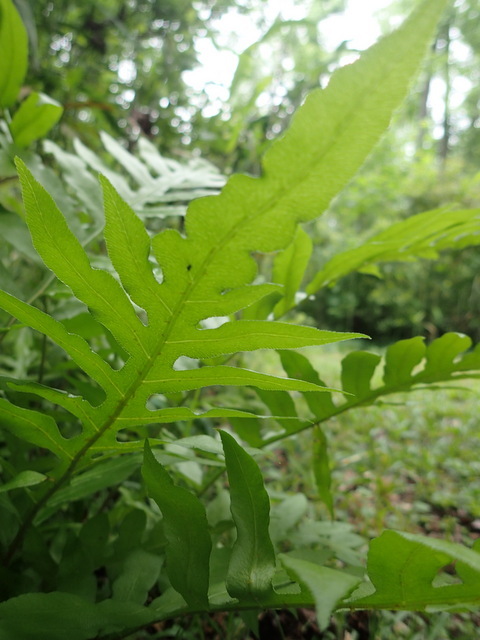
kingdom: Plantae
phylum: Tracheophyta
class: Polypodiopsida
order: Polypodiales
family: Blechnaceae
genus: Lorinseria
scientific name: Lorinseria areolata
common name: Dwarf chain fern
